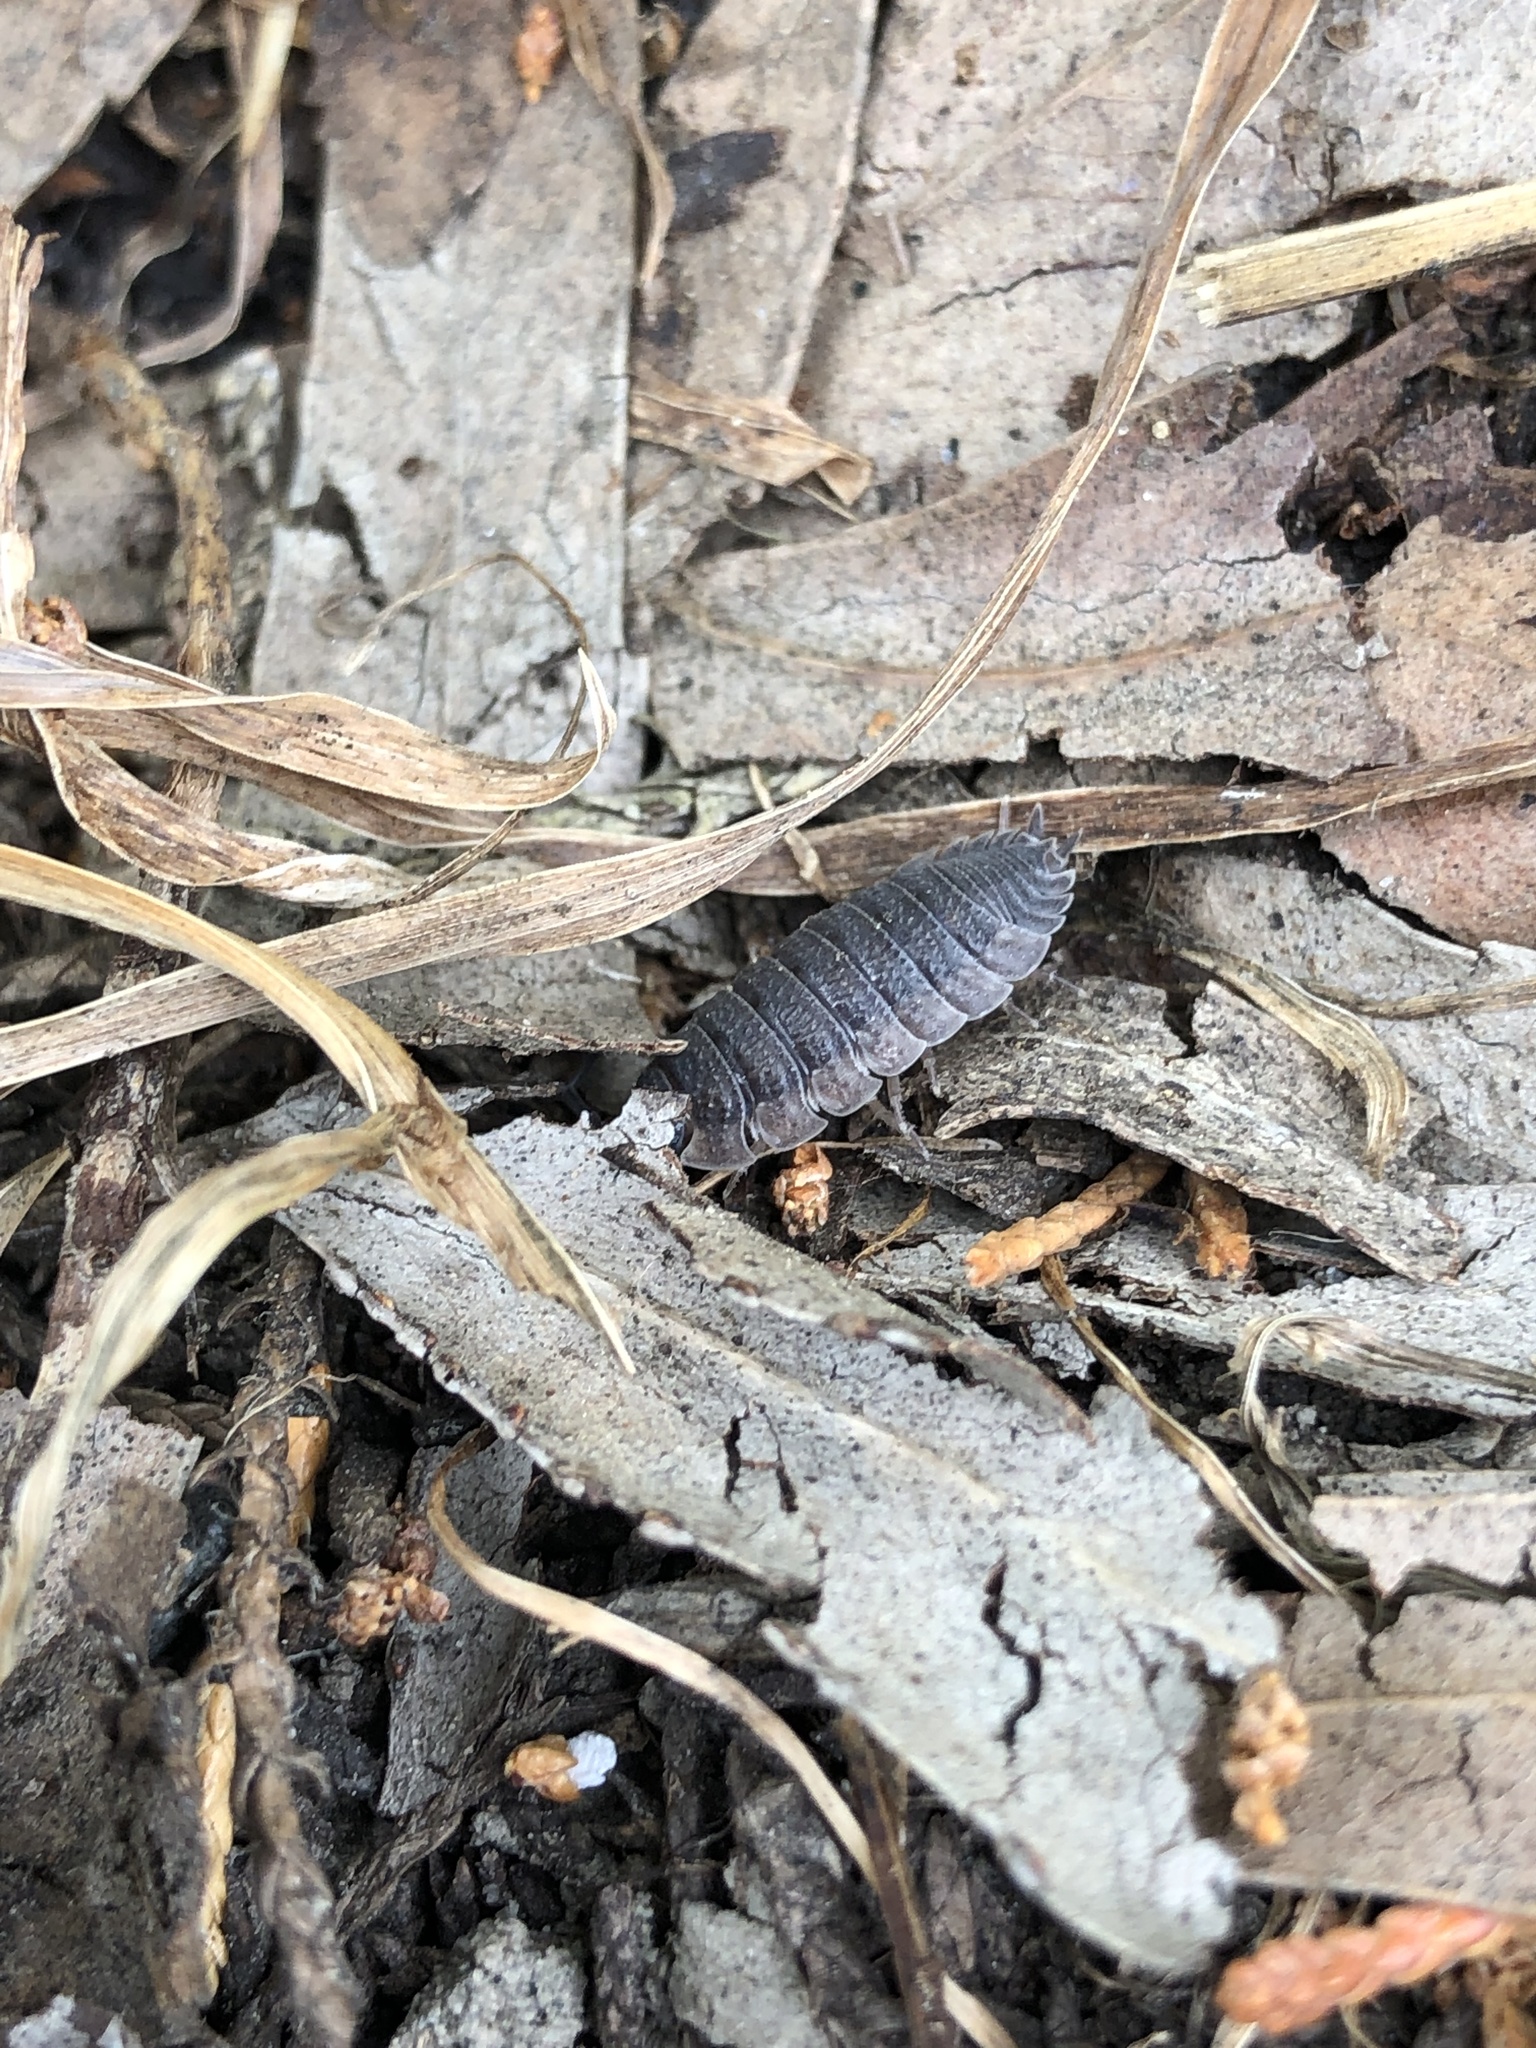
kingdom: Animalia
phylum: Arthropoda
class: Malacostraca
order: Isopoda
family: Porcellionidae
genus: Porcellio
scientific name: Porcellio scaber
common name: Common rough woodlouse
